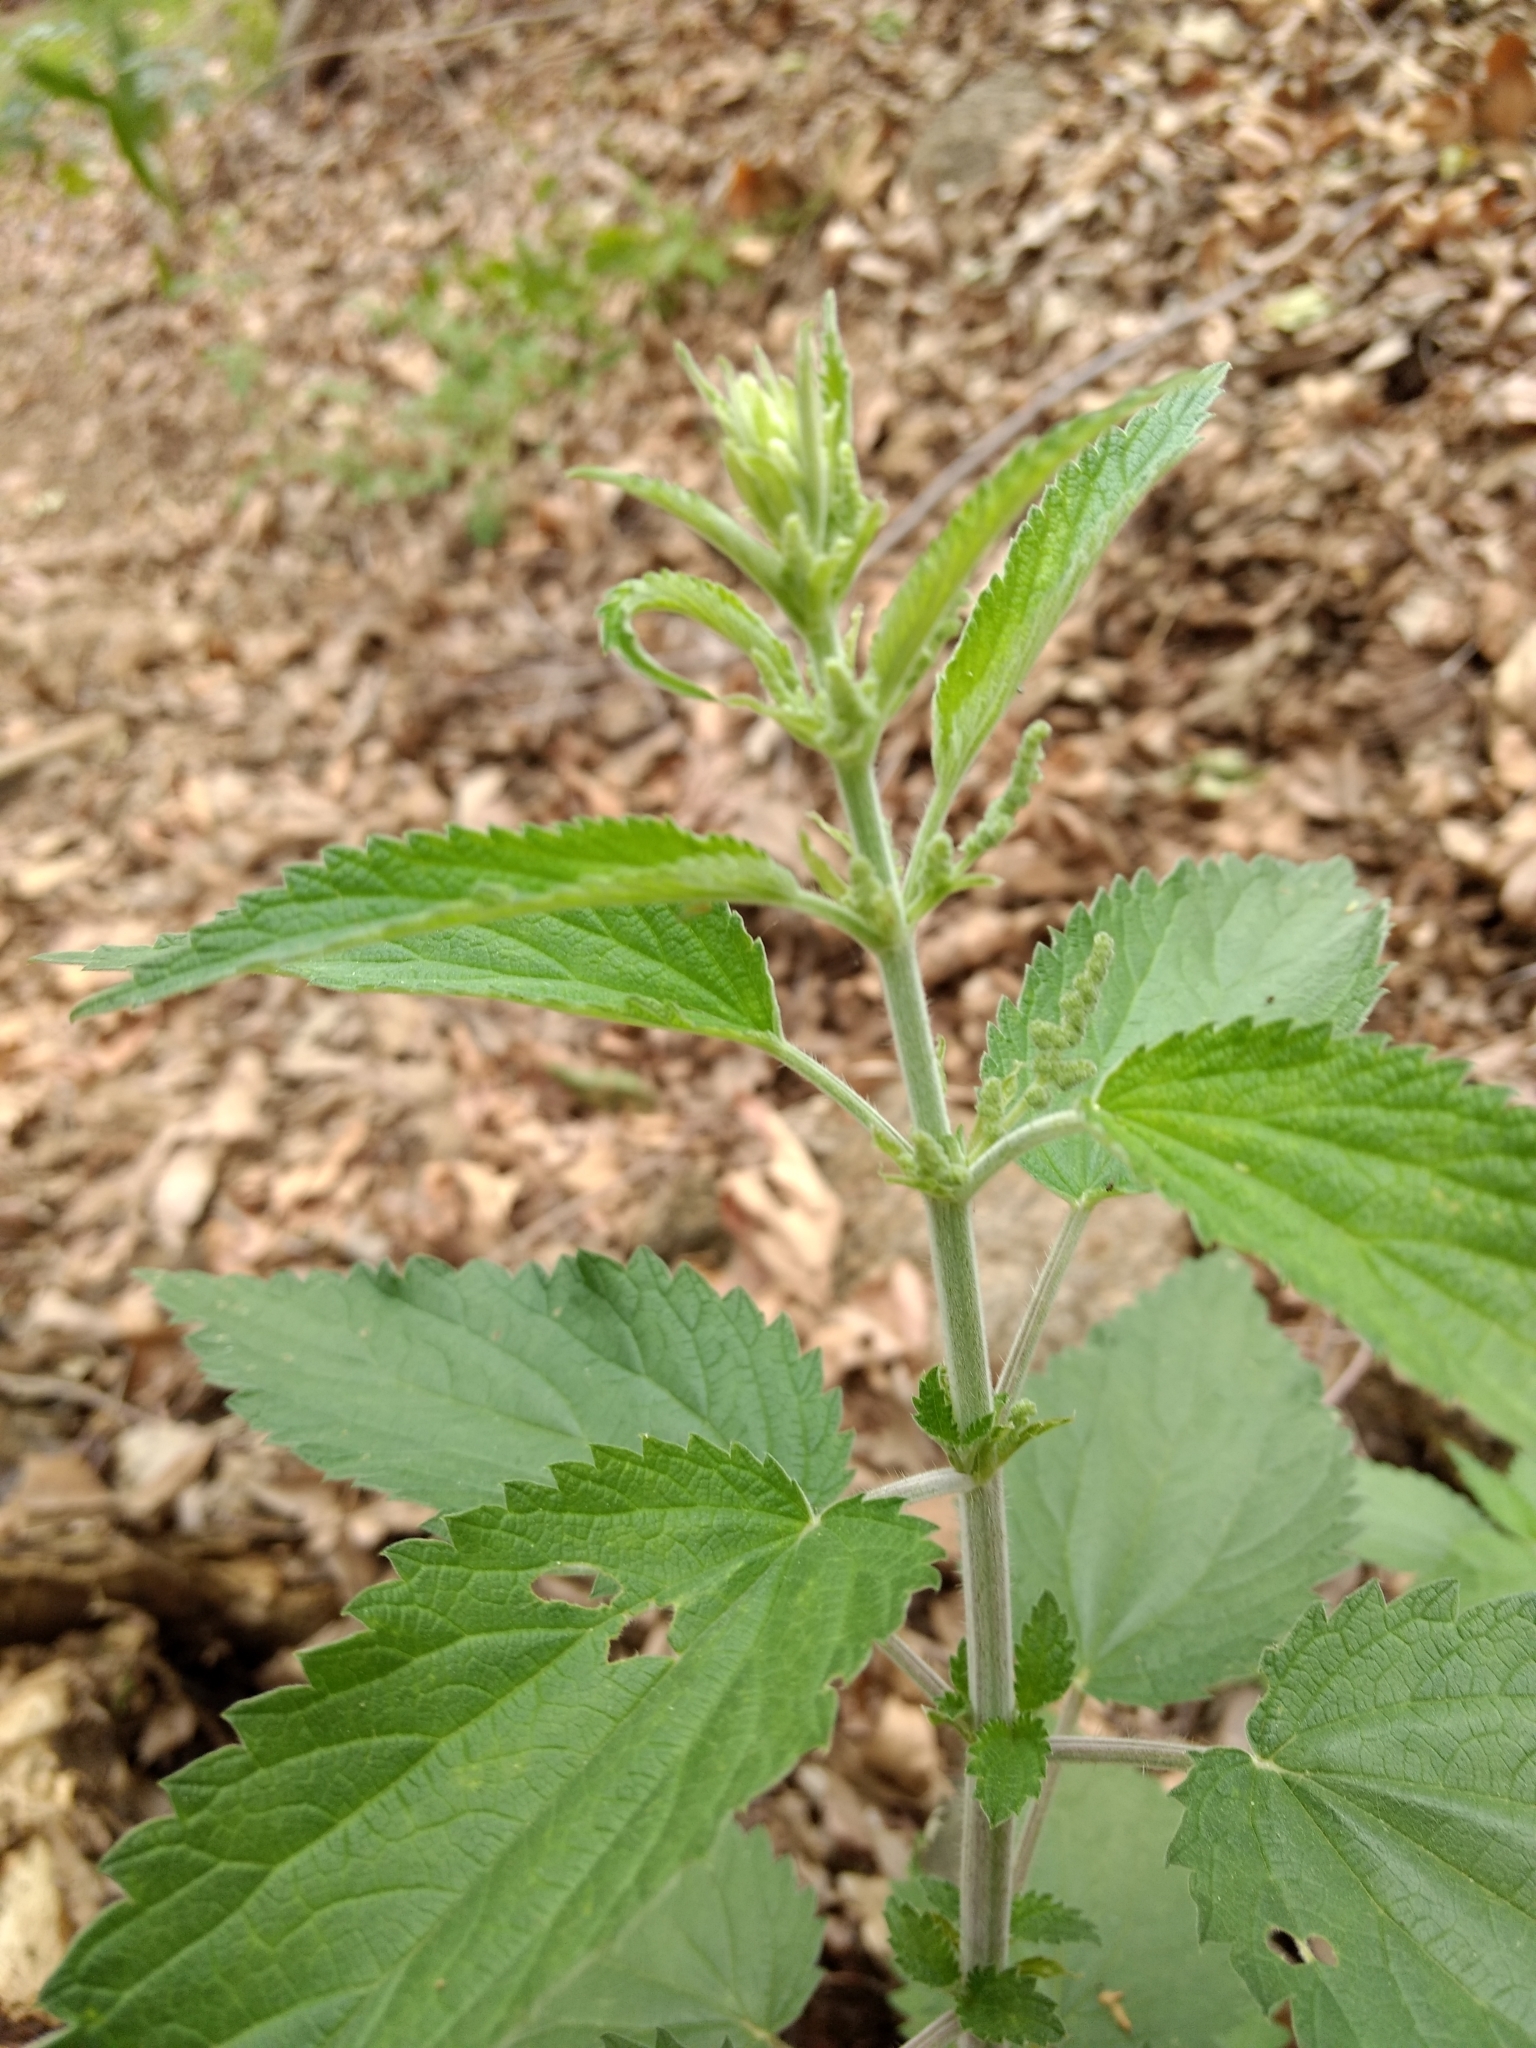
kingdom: Plantae
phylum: Tracheophyta
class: Magnoliopsida
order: Rosales
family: Urticaceae
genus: Urtica
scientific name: Urtica dioica
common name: Common nettle
